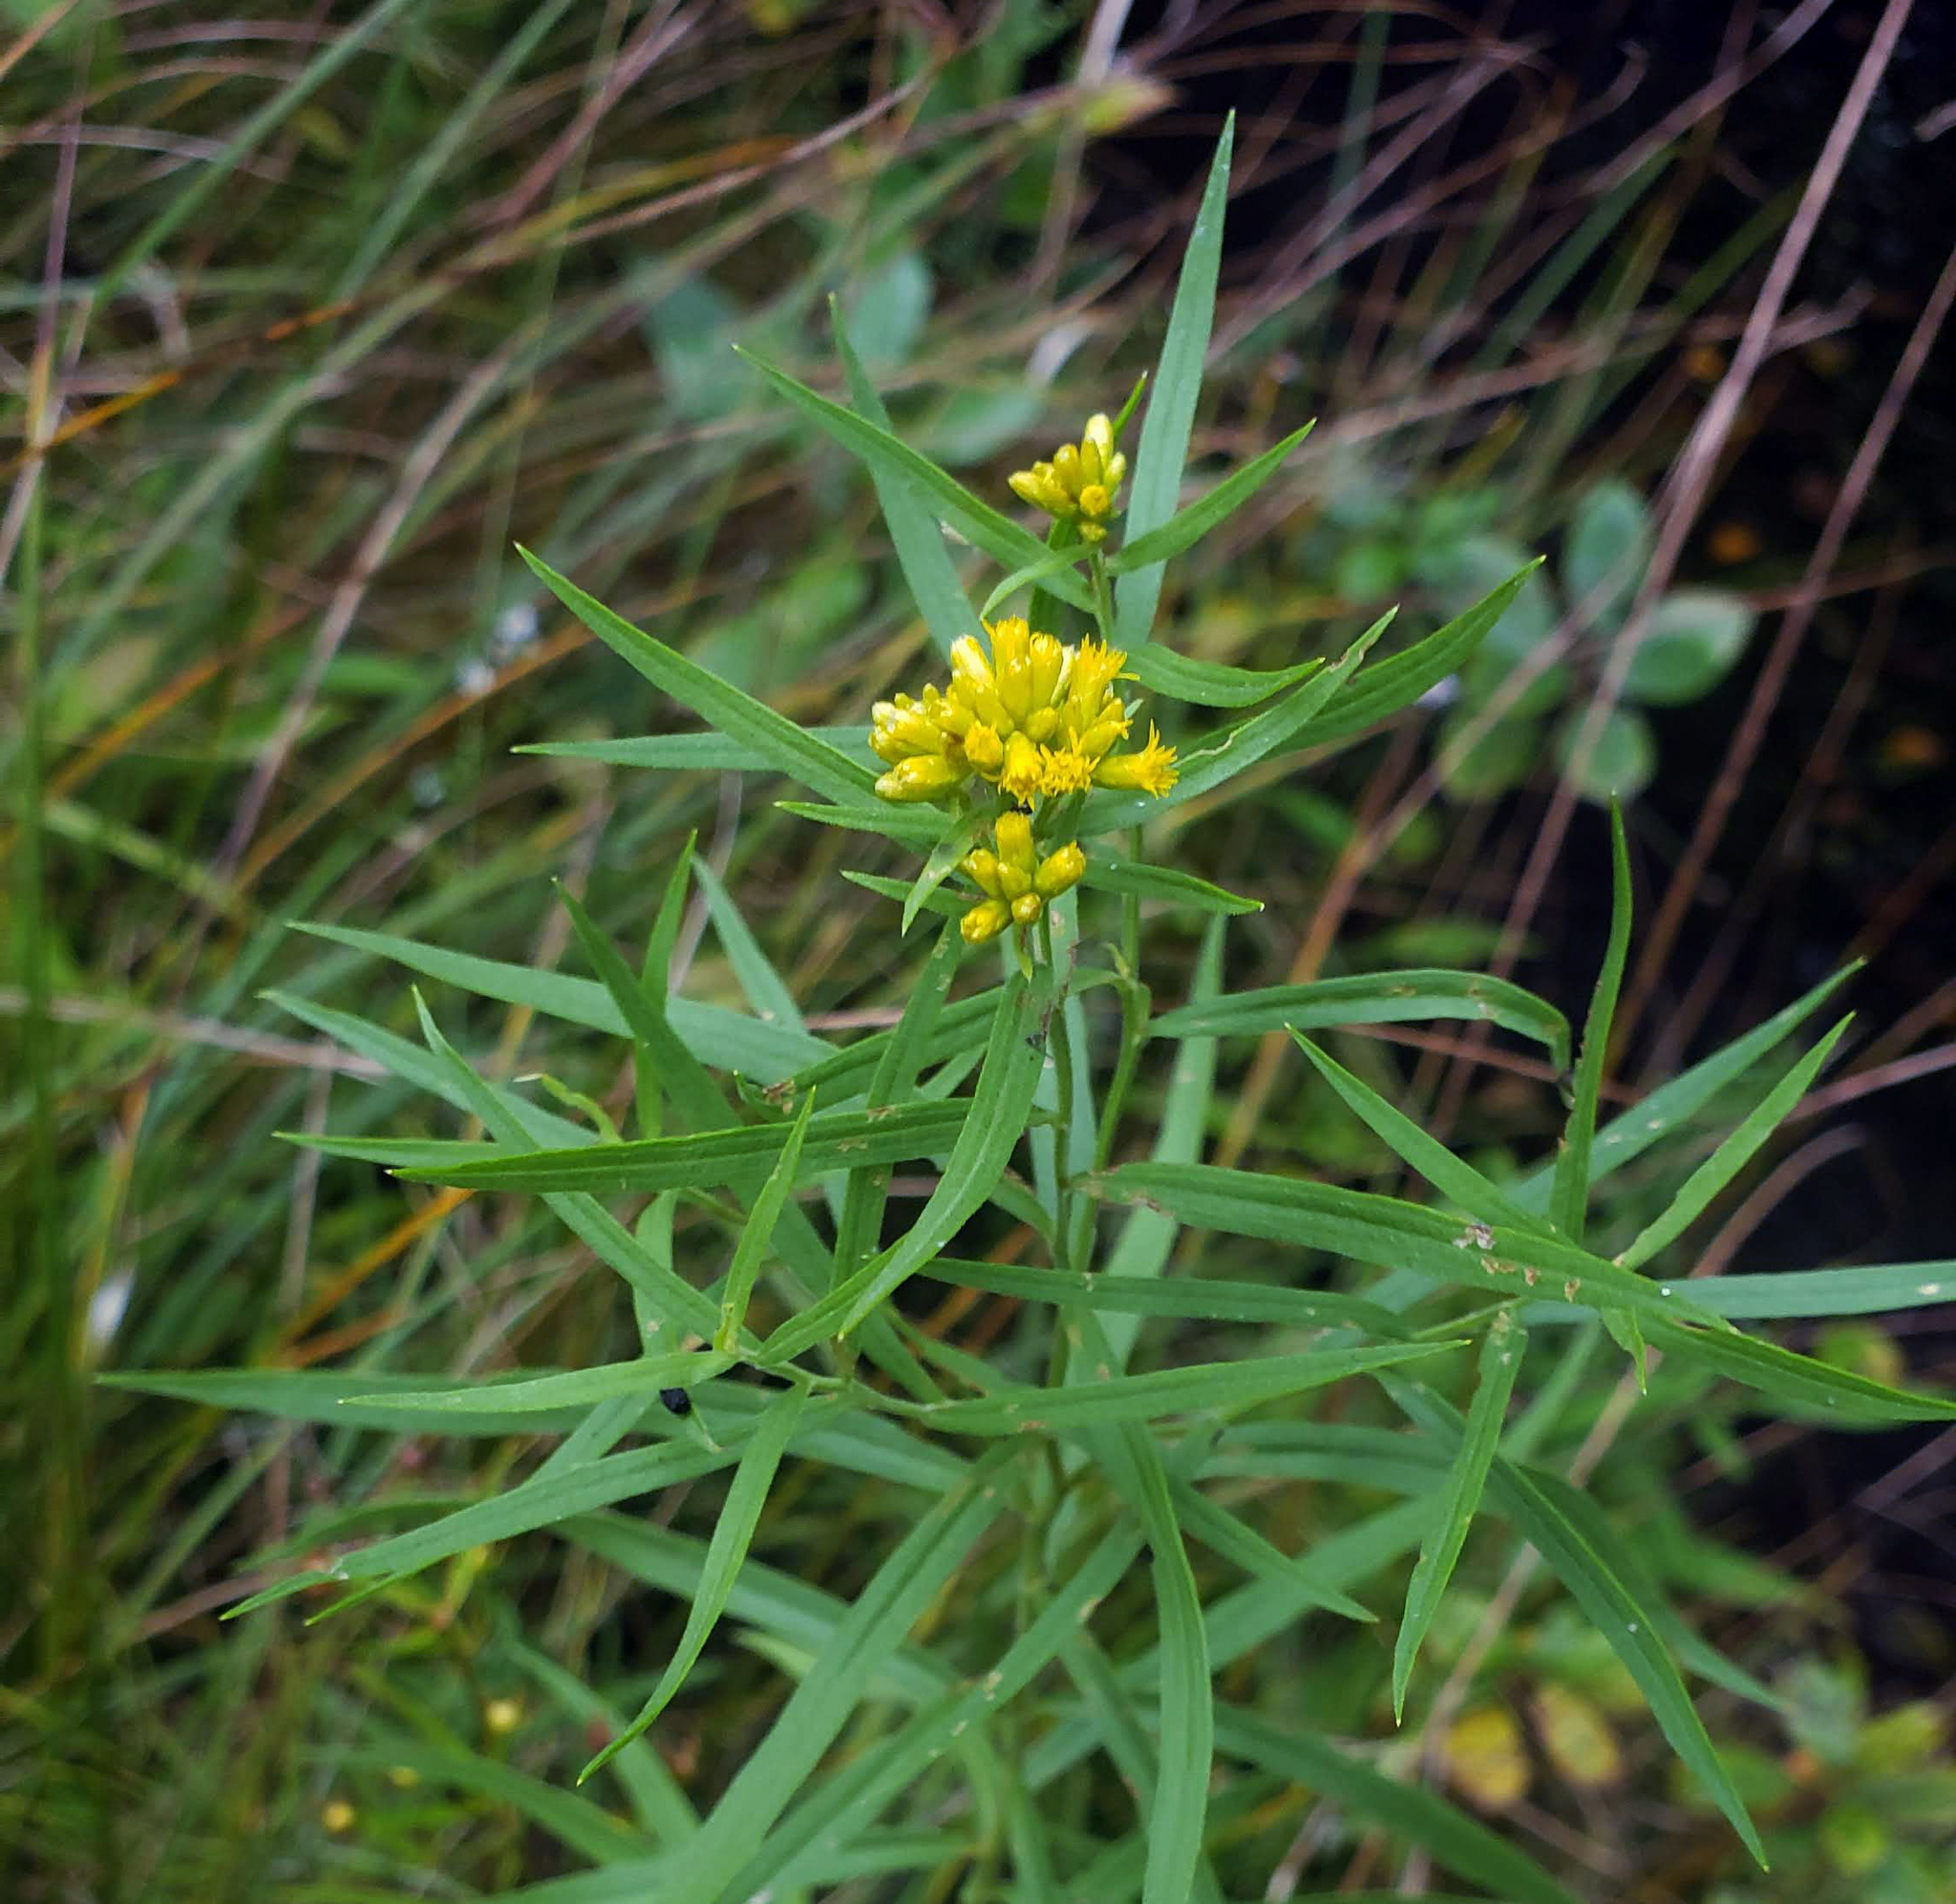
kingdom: Plantae
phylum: Tracheophyta
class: Magnoliopsida
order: Asterales
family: Asteraceae
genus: Euthamia
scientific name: Euthamia graminifolia
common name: Common goldentop
